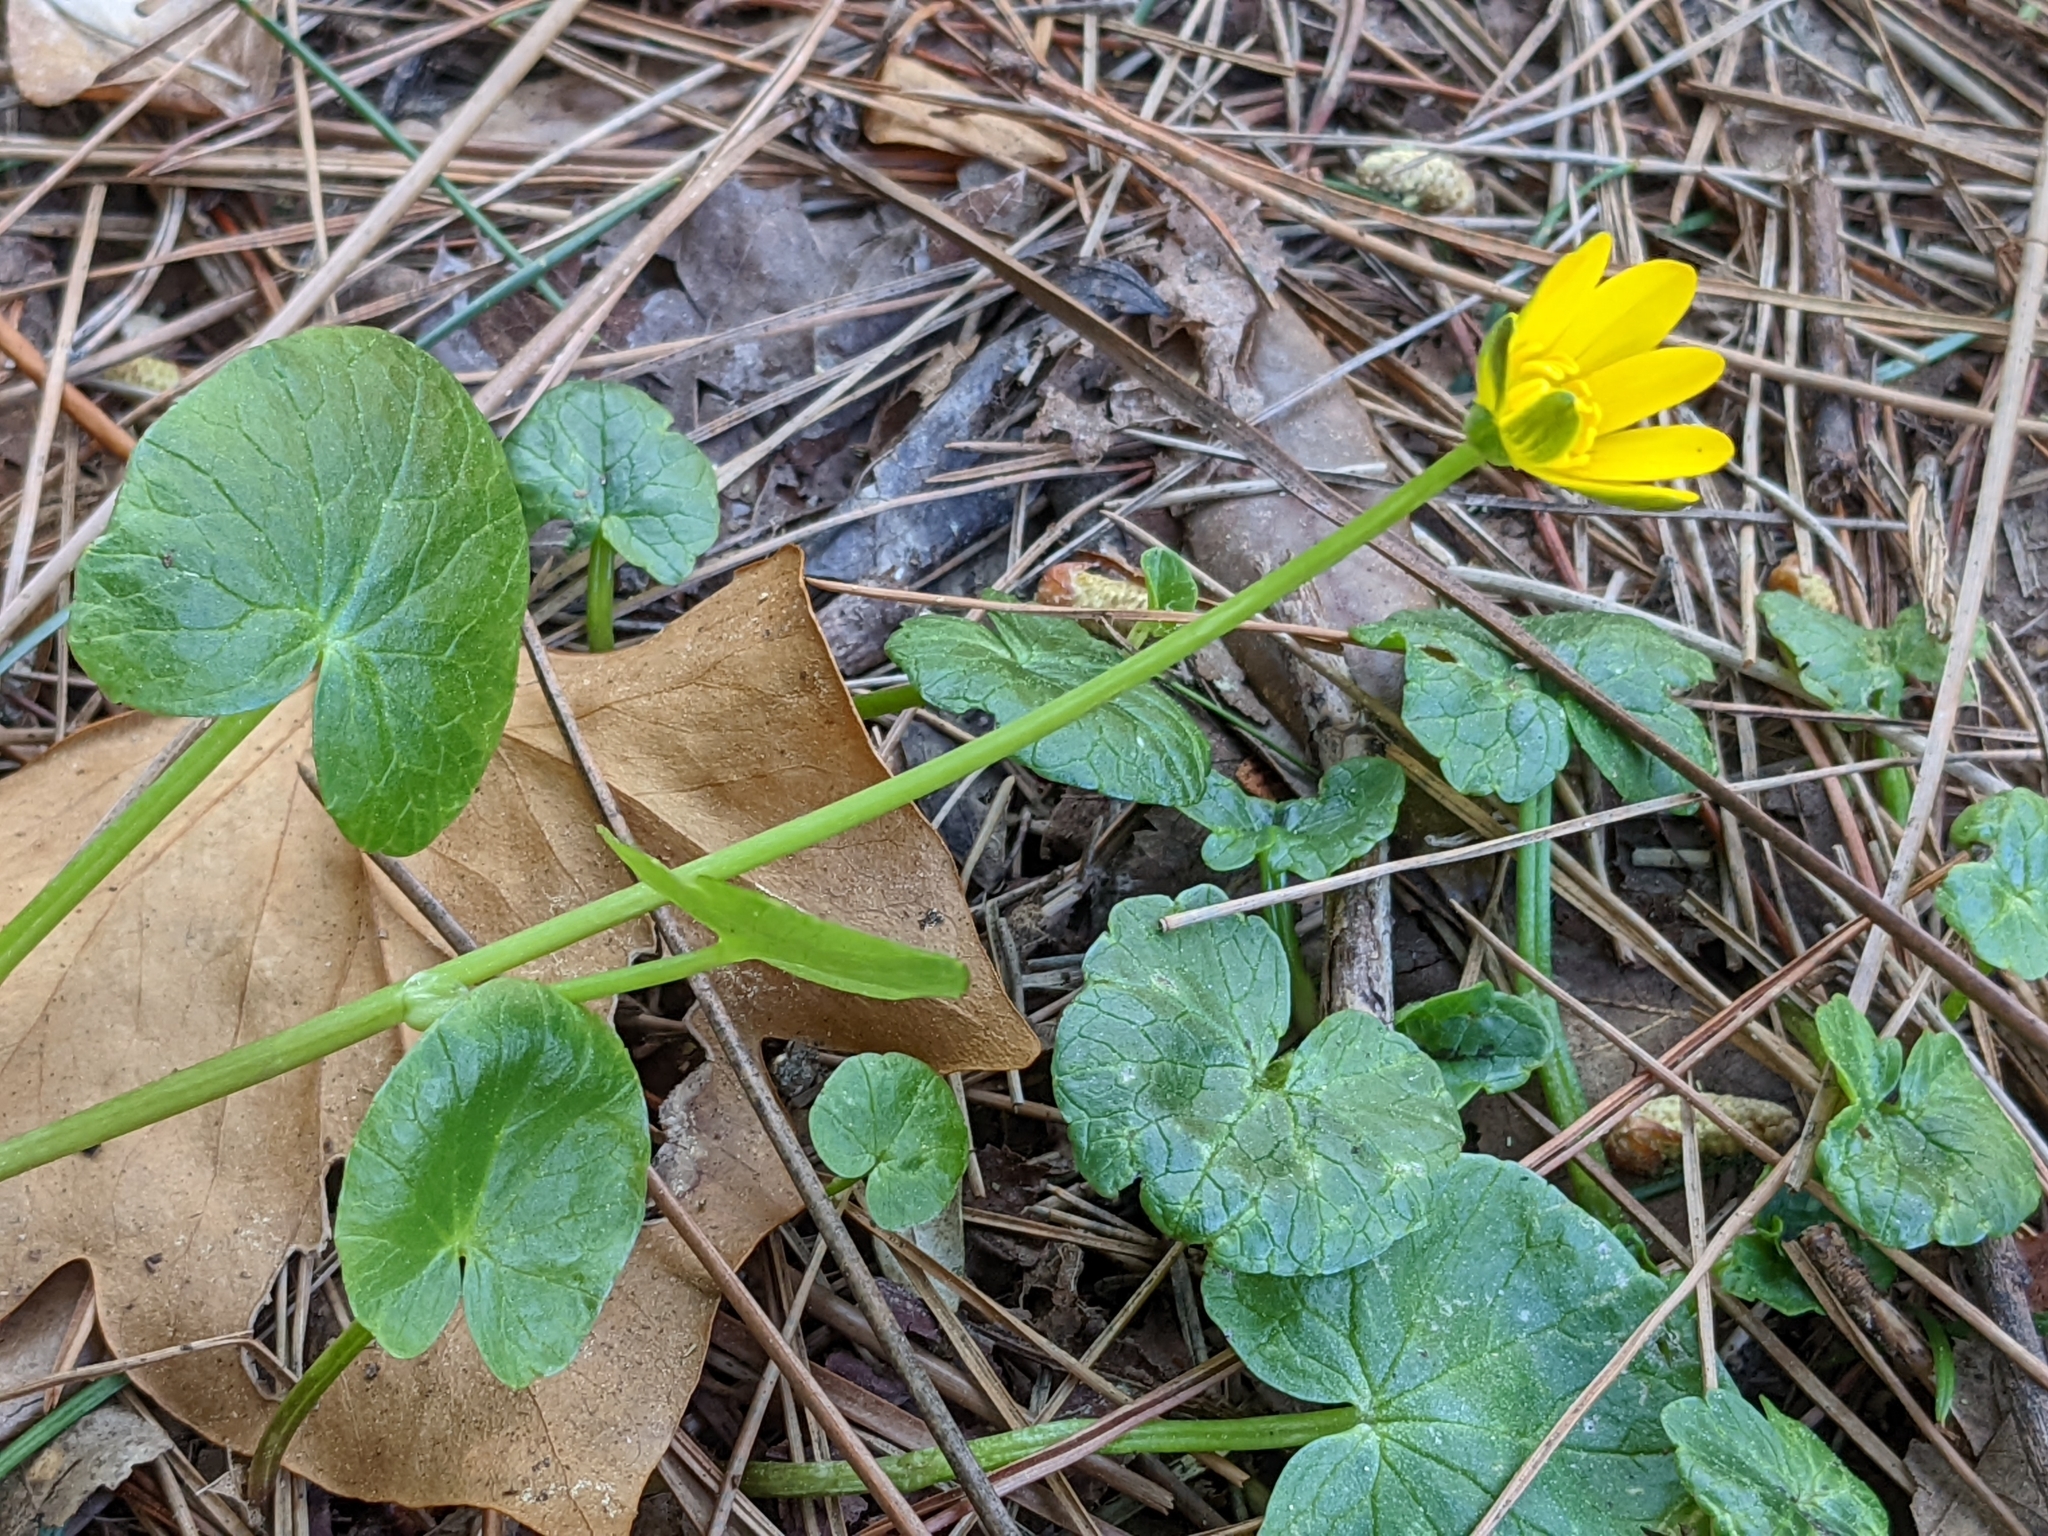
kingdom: Plantae
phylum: Tracheophyta
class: Magnoliopsida
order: Ranunculales
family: Ranunculaceae
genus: Ficaria
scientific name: Ficaria verna
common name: Lesser celandine
